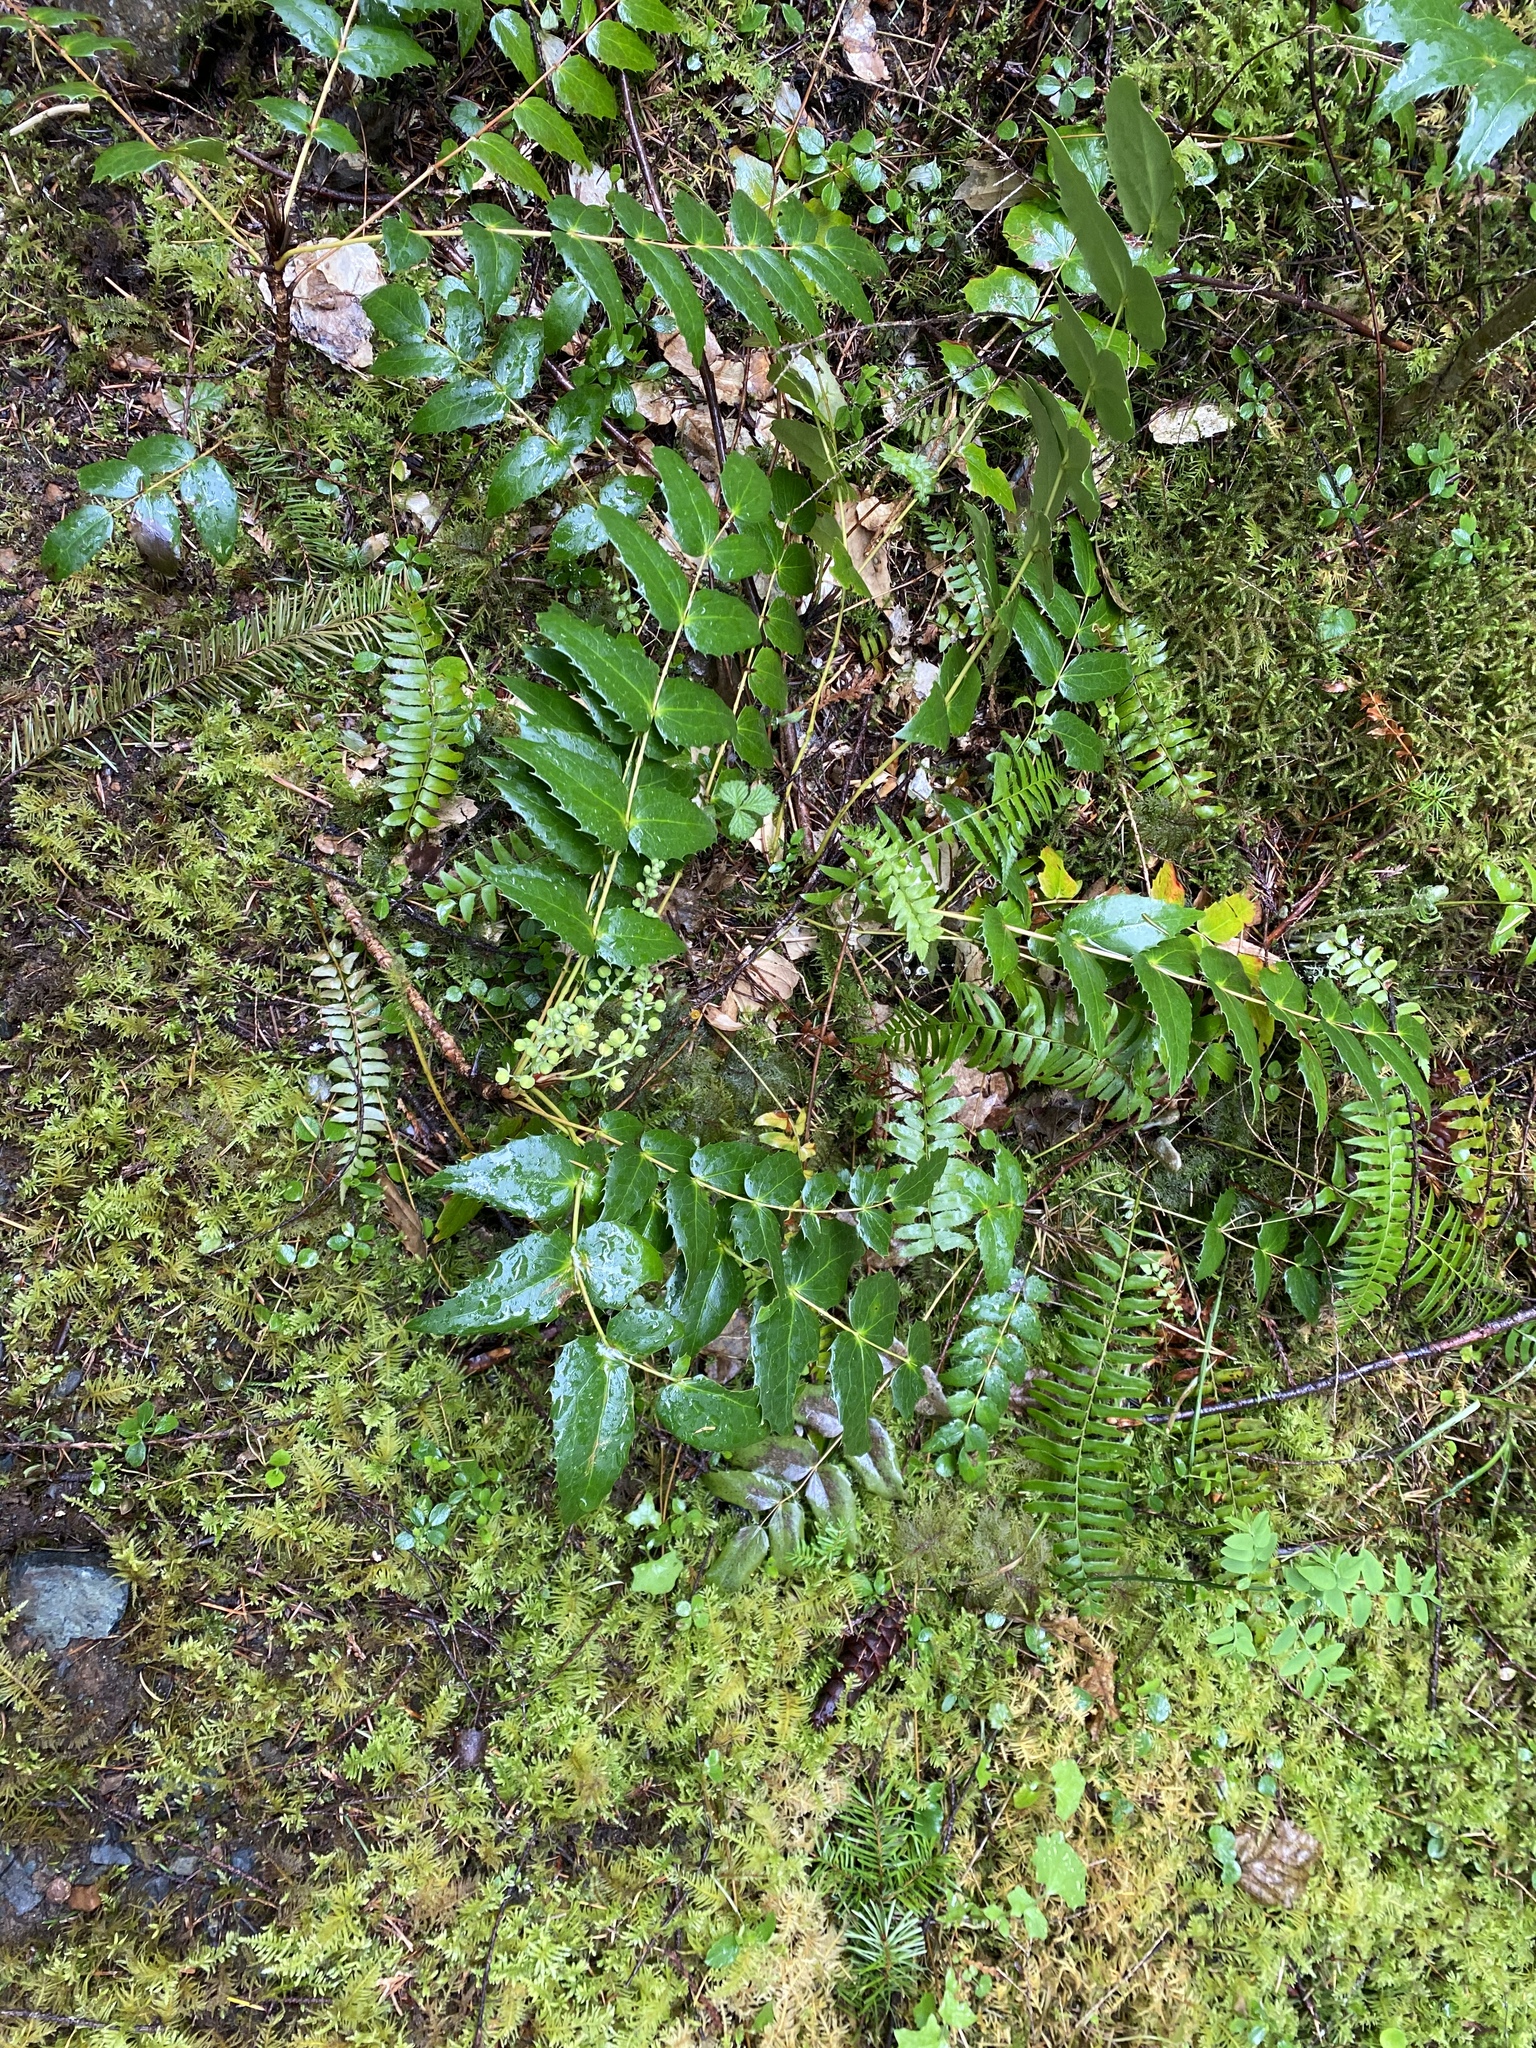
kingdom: Plantae
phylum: Tracheophyta
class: Magnoliopsida
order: Ranunculales
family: Berberidaceae
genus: Mahonia
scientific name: Mahonia nervosa
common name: Cascade oregon-grape
